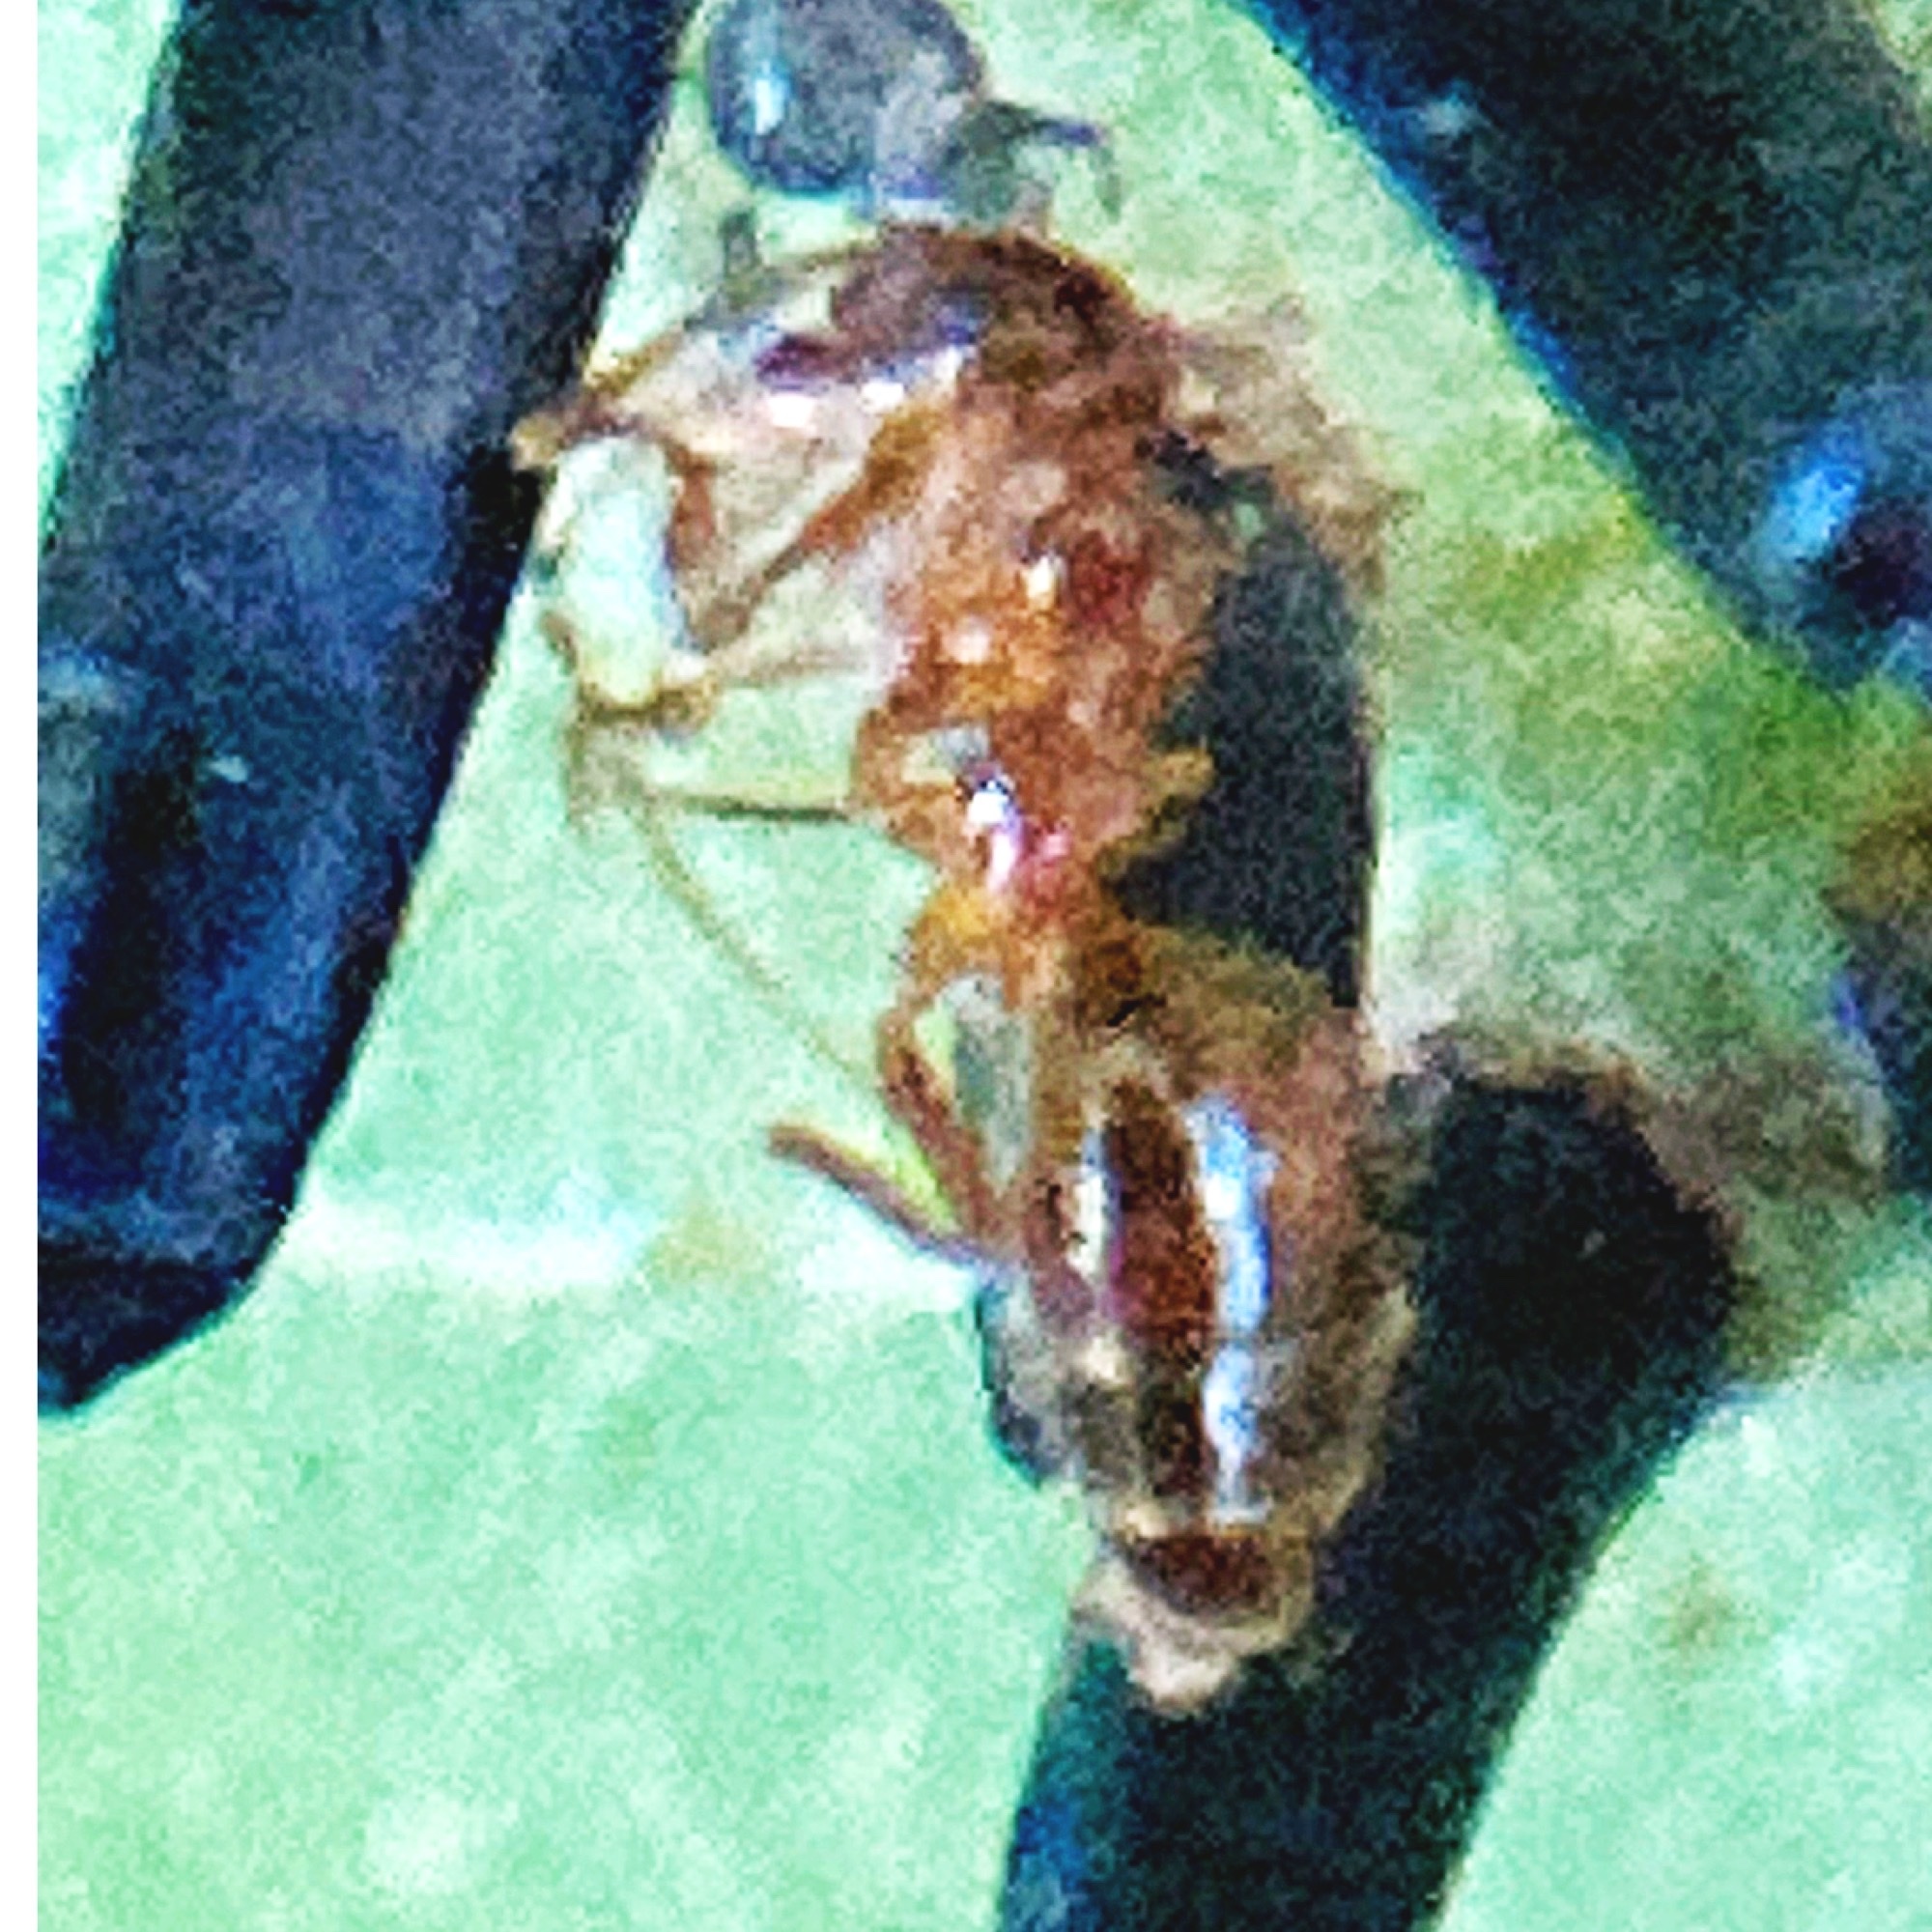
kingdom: Animalia
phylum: Arthropoda
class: Insecta
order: Hymenoptera
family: Formicidae
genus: Prenolepis
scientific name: Prenolepis imparis
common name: Small honey ant
